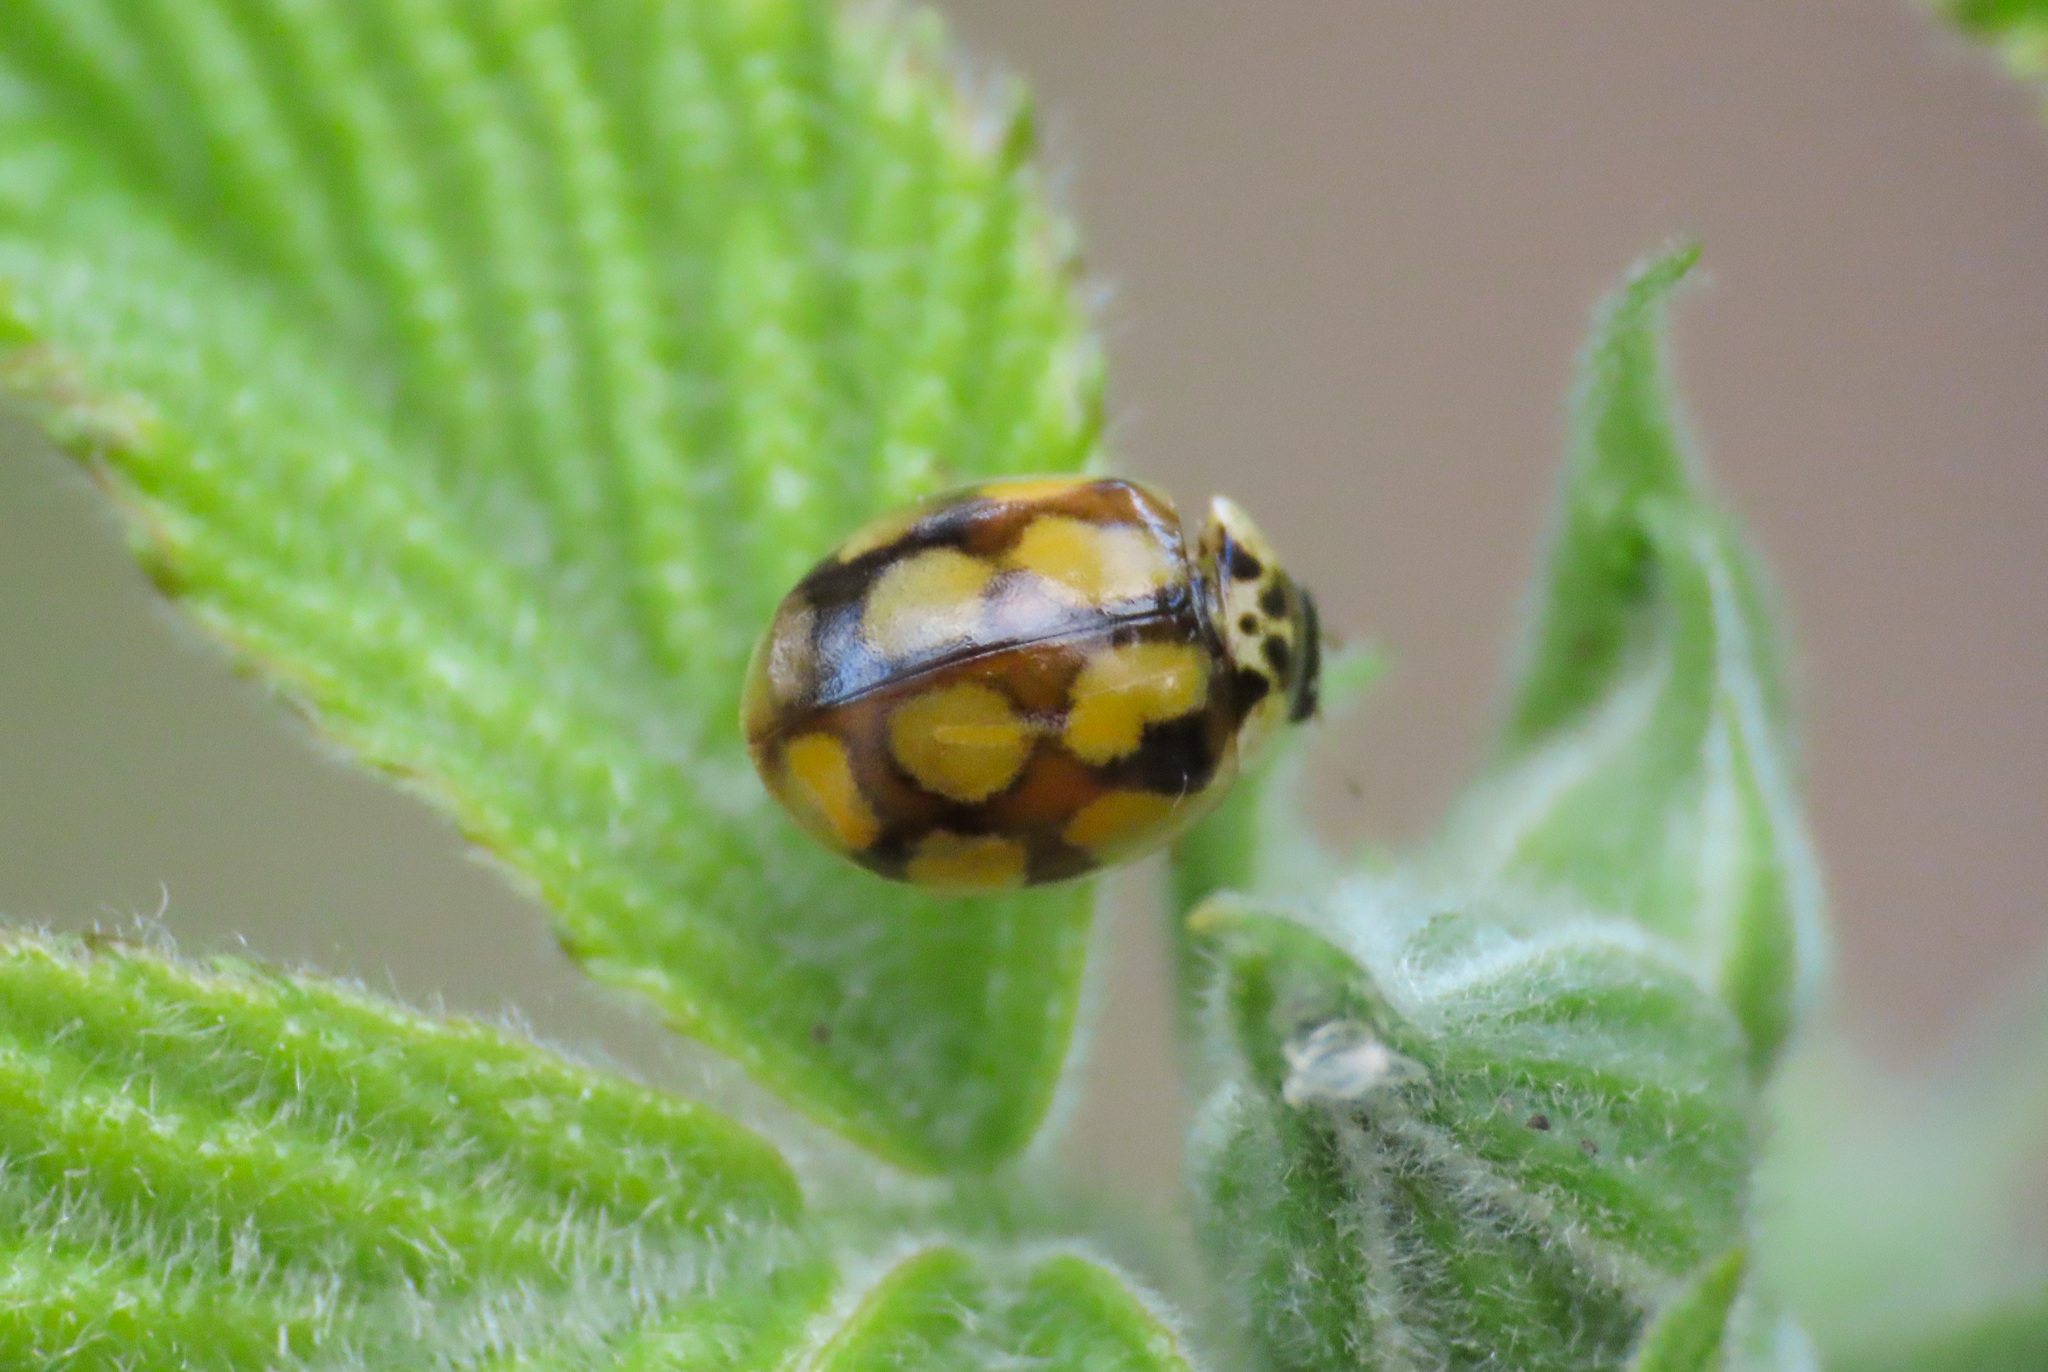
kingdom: Animalia
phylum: Arthropoda
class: Insecta
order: Coleoptera
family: Coccinellidae
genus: Adalia
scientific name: Adalia decempunctata
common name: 10-spot ladybird
